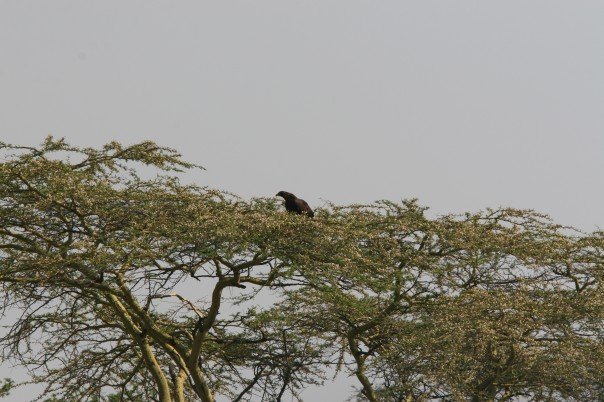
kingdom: Animalia
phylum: Chordata
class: Aves
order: Accipitriformes
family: Accipitridae
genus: Aquila
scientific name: Aquila verreauxii
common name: Verreaux's eagle
